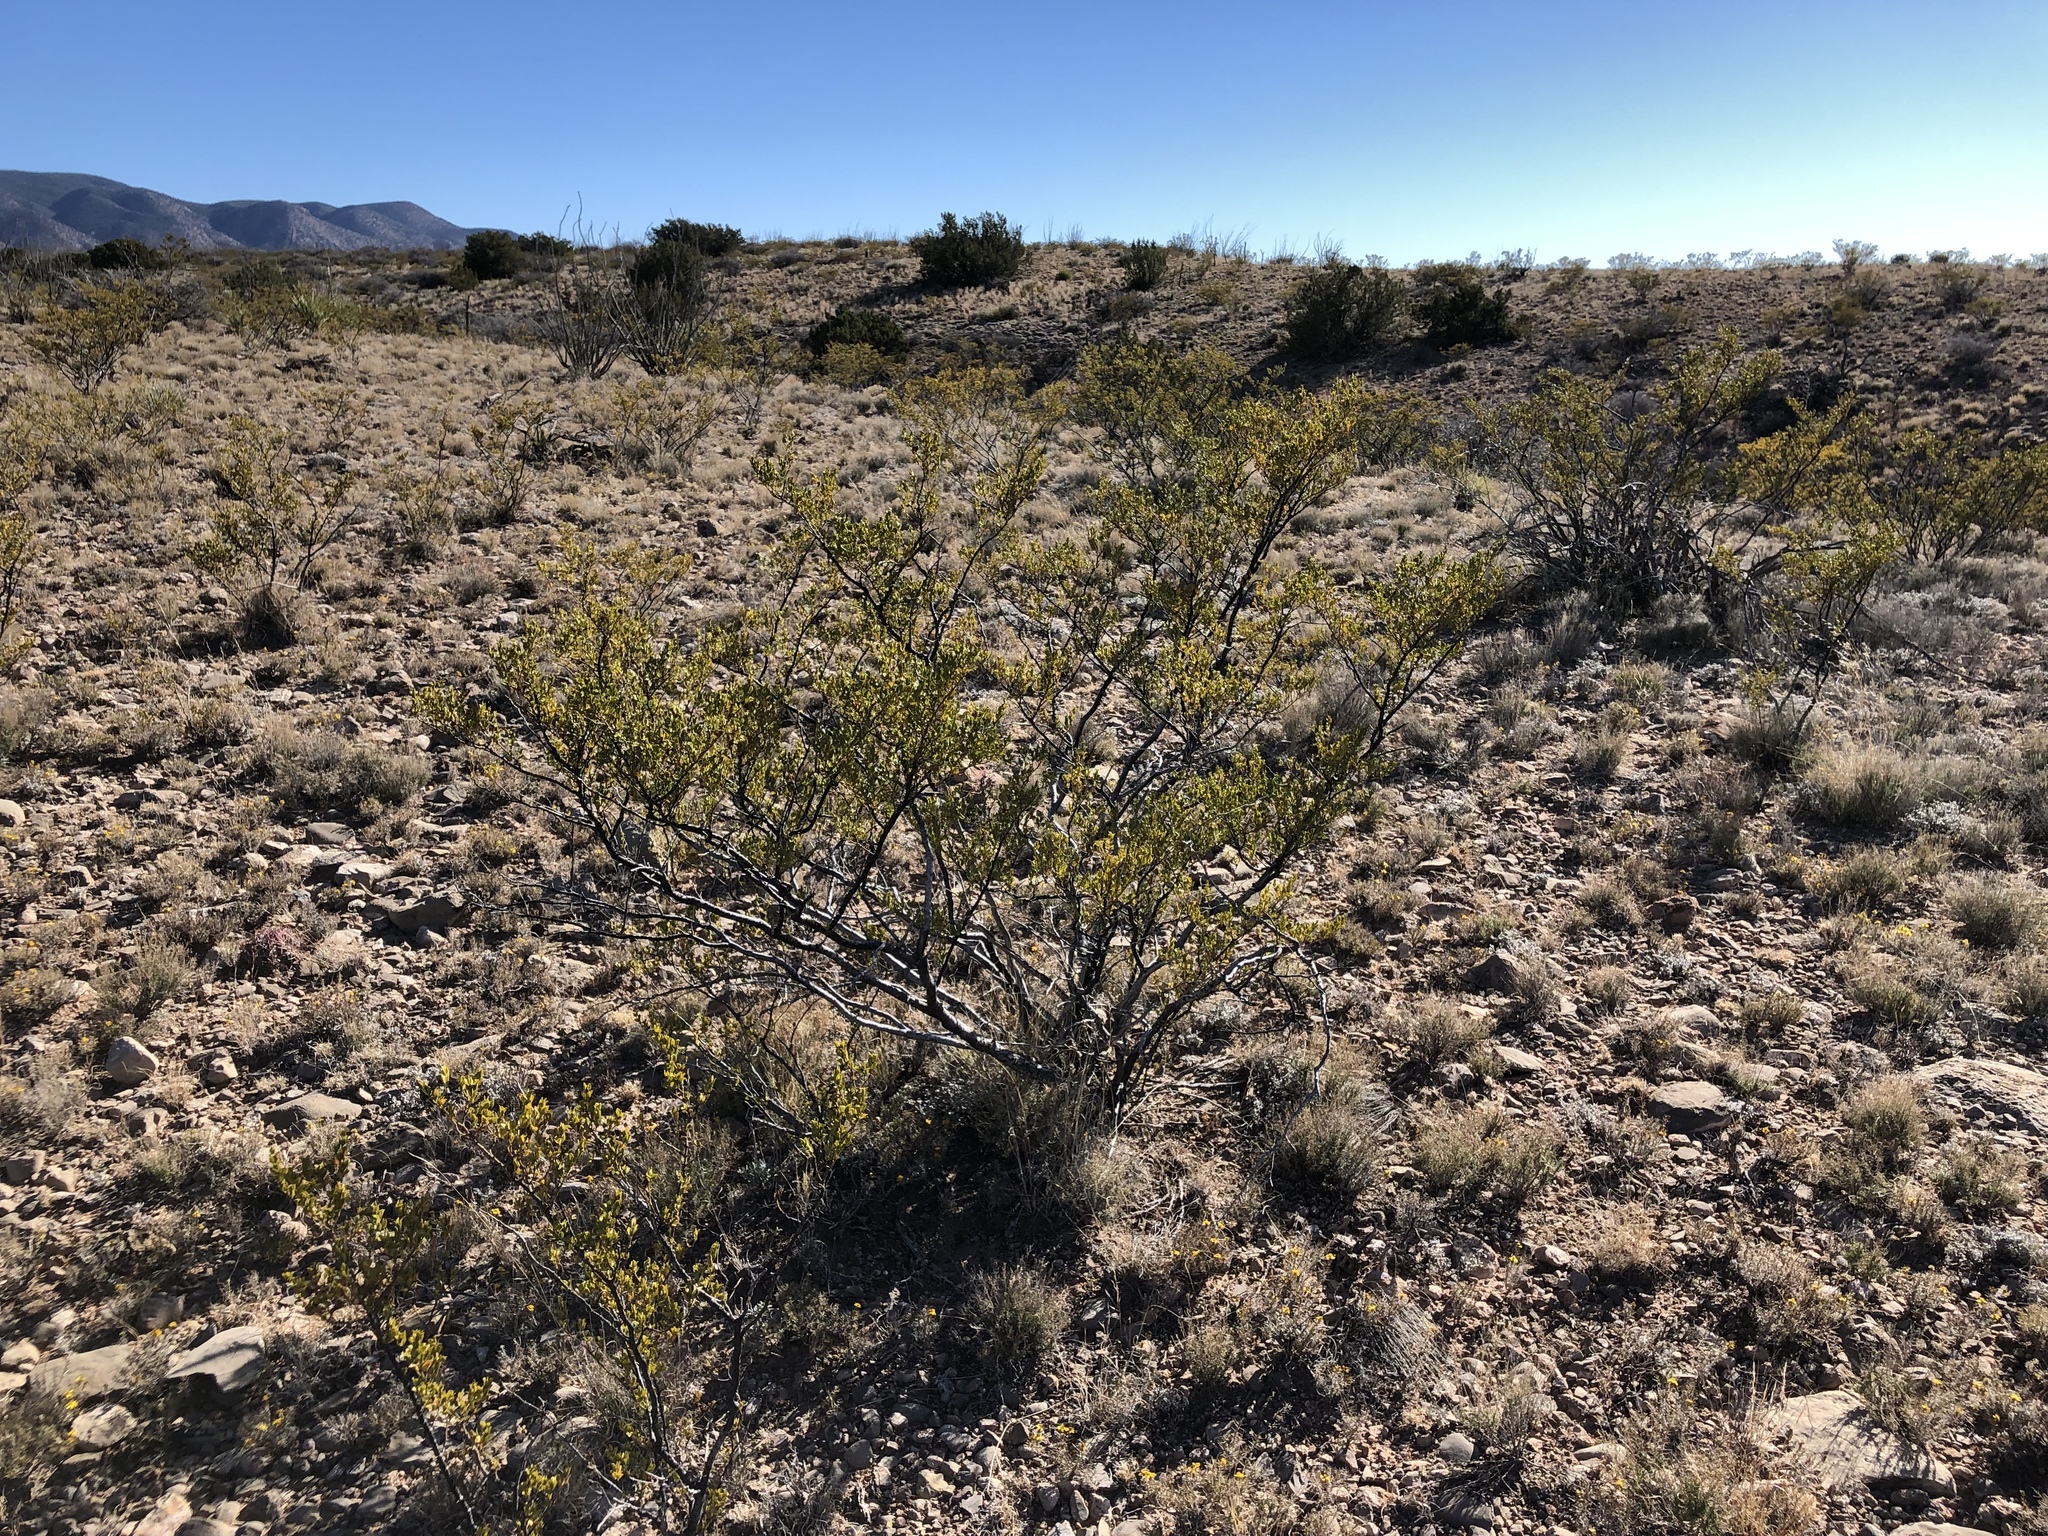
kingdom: Plantae
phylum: Tracheophyta
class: Magnoliopsida
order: Zygophyllales
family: Zygophyllaceae
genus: Larrea
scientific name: Larrea tridentata
